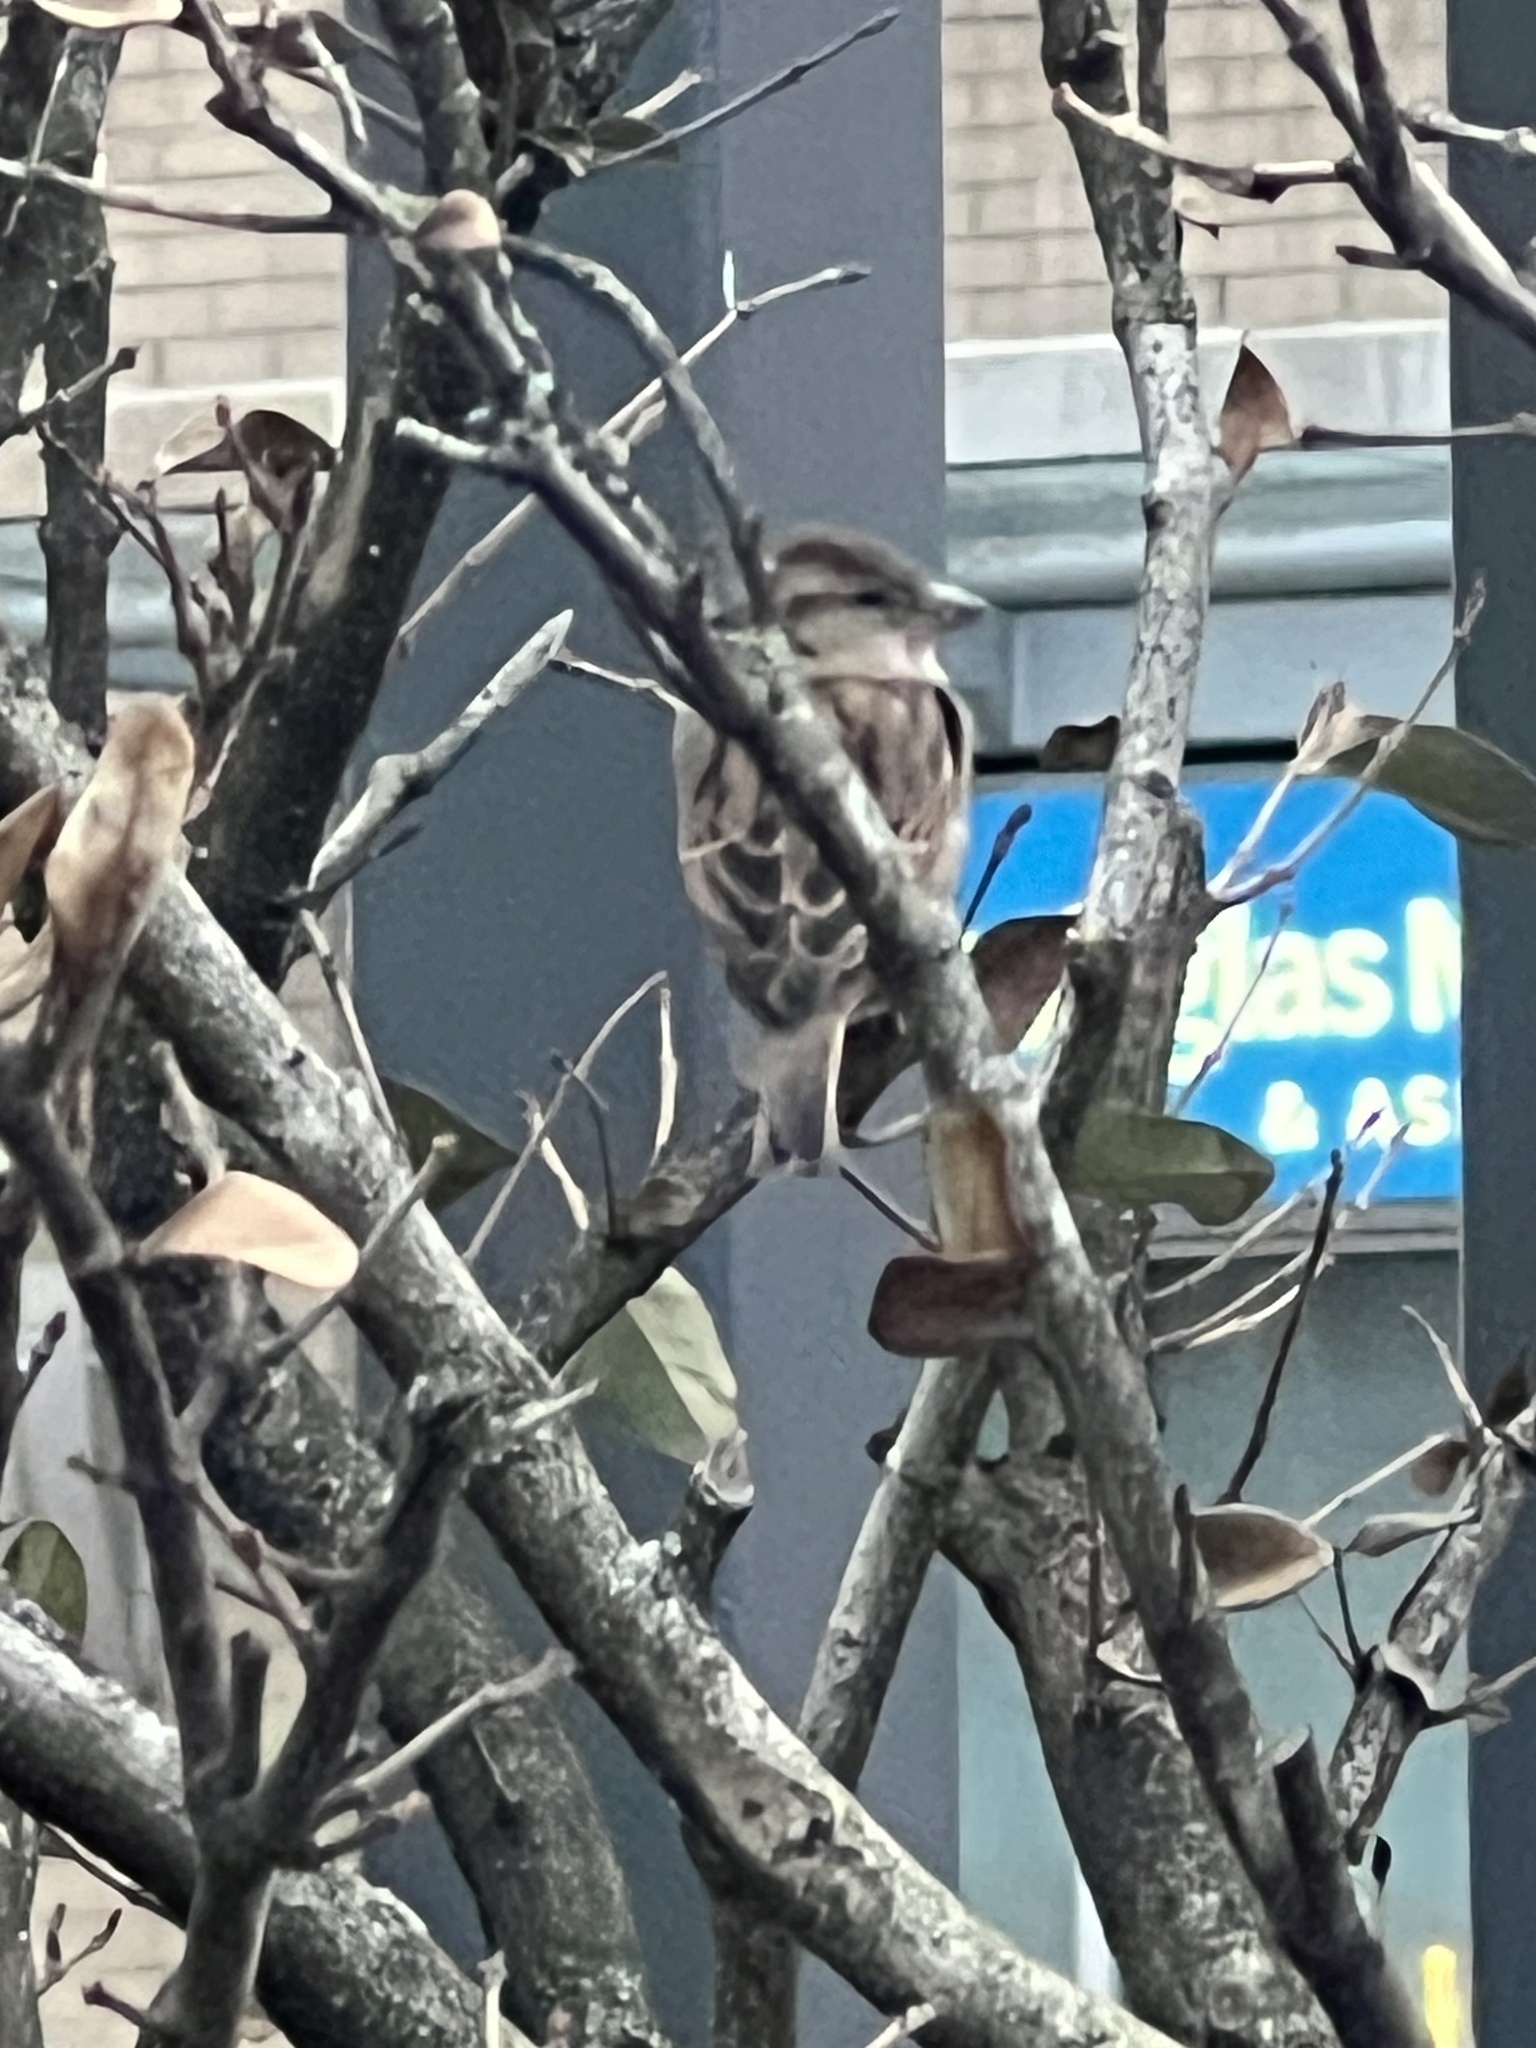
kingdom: Animalia
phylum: Chordata
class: Aves
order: Passeriformes
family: Passeridae
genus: Passer
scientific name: Passer domesticus
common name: House sparrow
